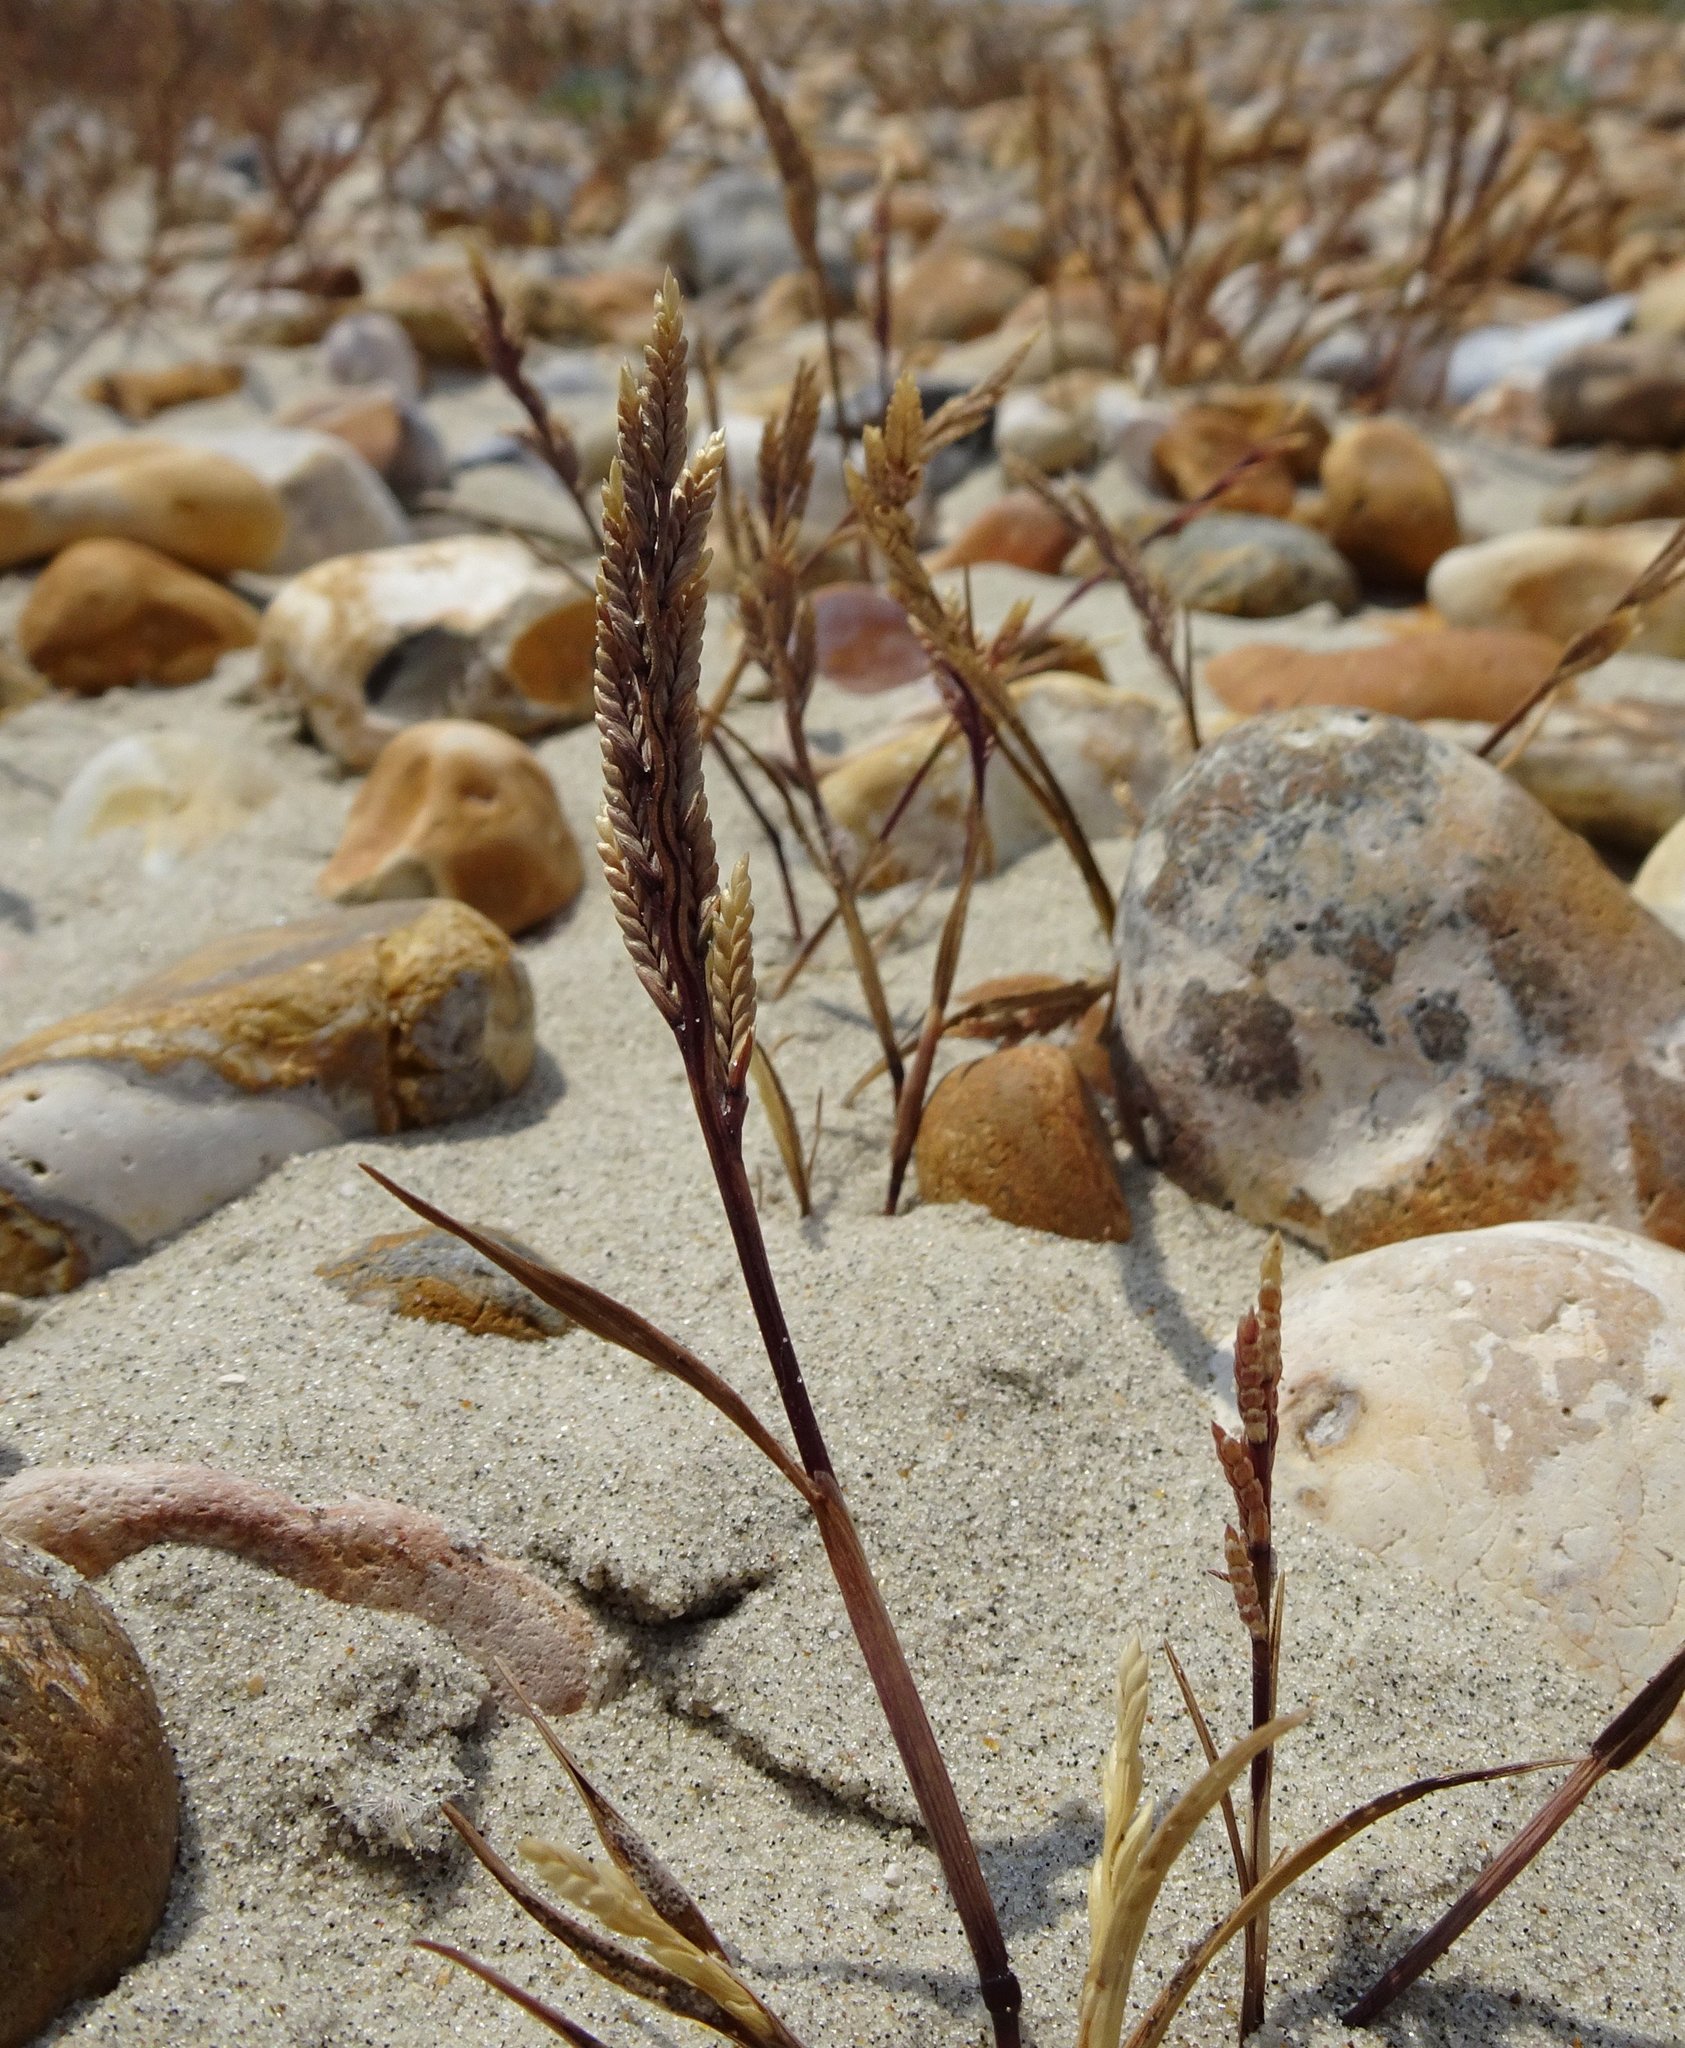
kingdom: Plantae
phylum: Tracheophyta
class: Liliopsida
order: Poales
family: Poaceae
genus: Catapodium
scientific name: Catapodium marinum
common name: Sea fern-grass
